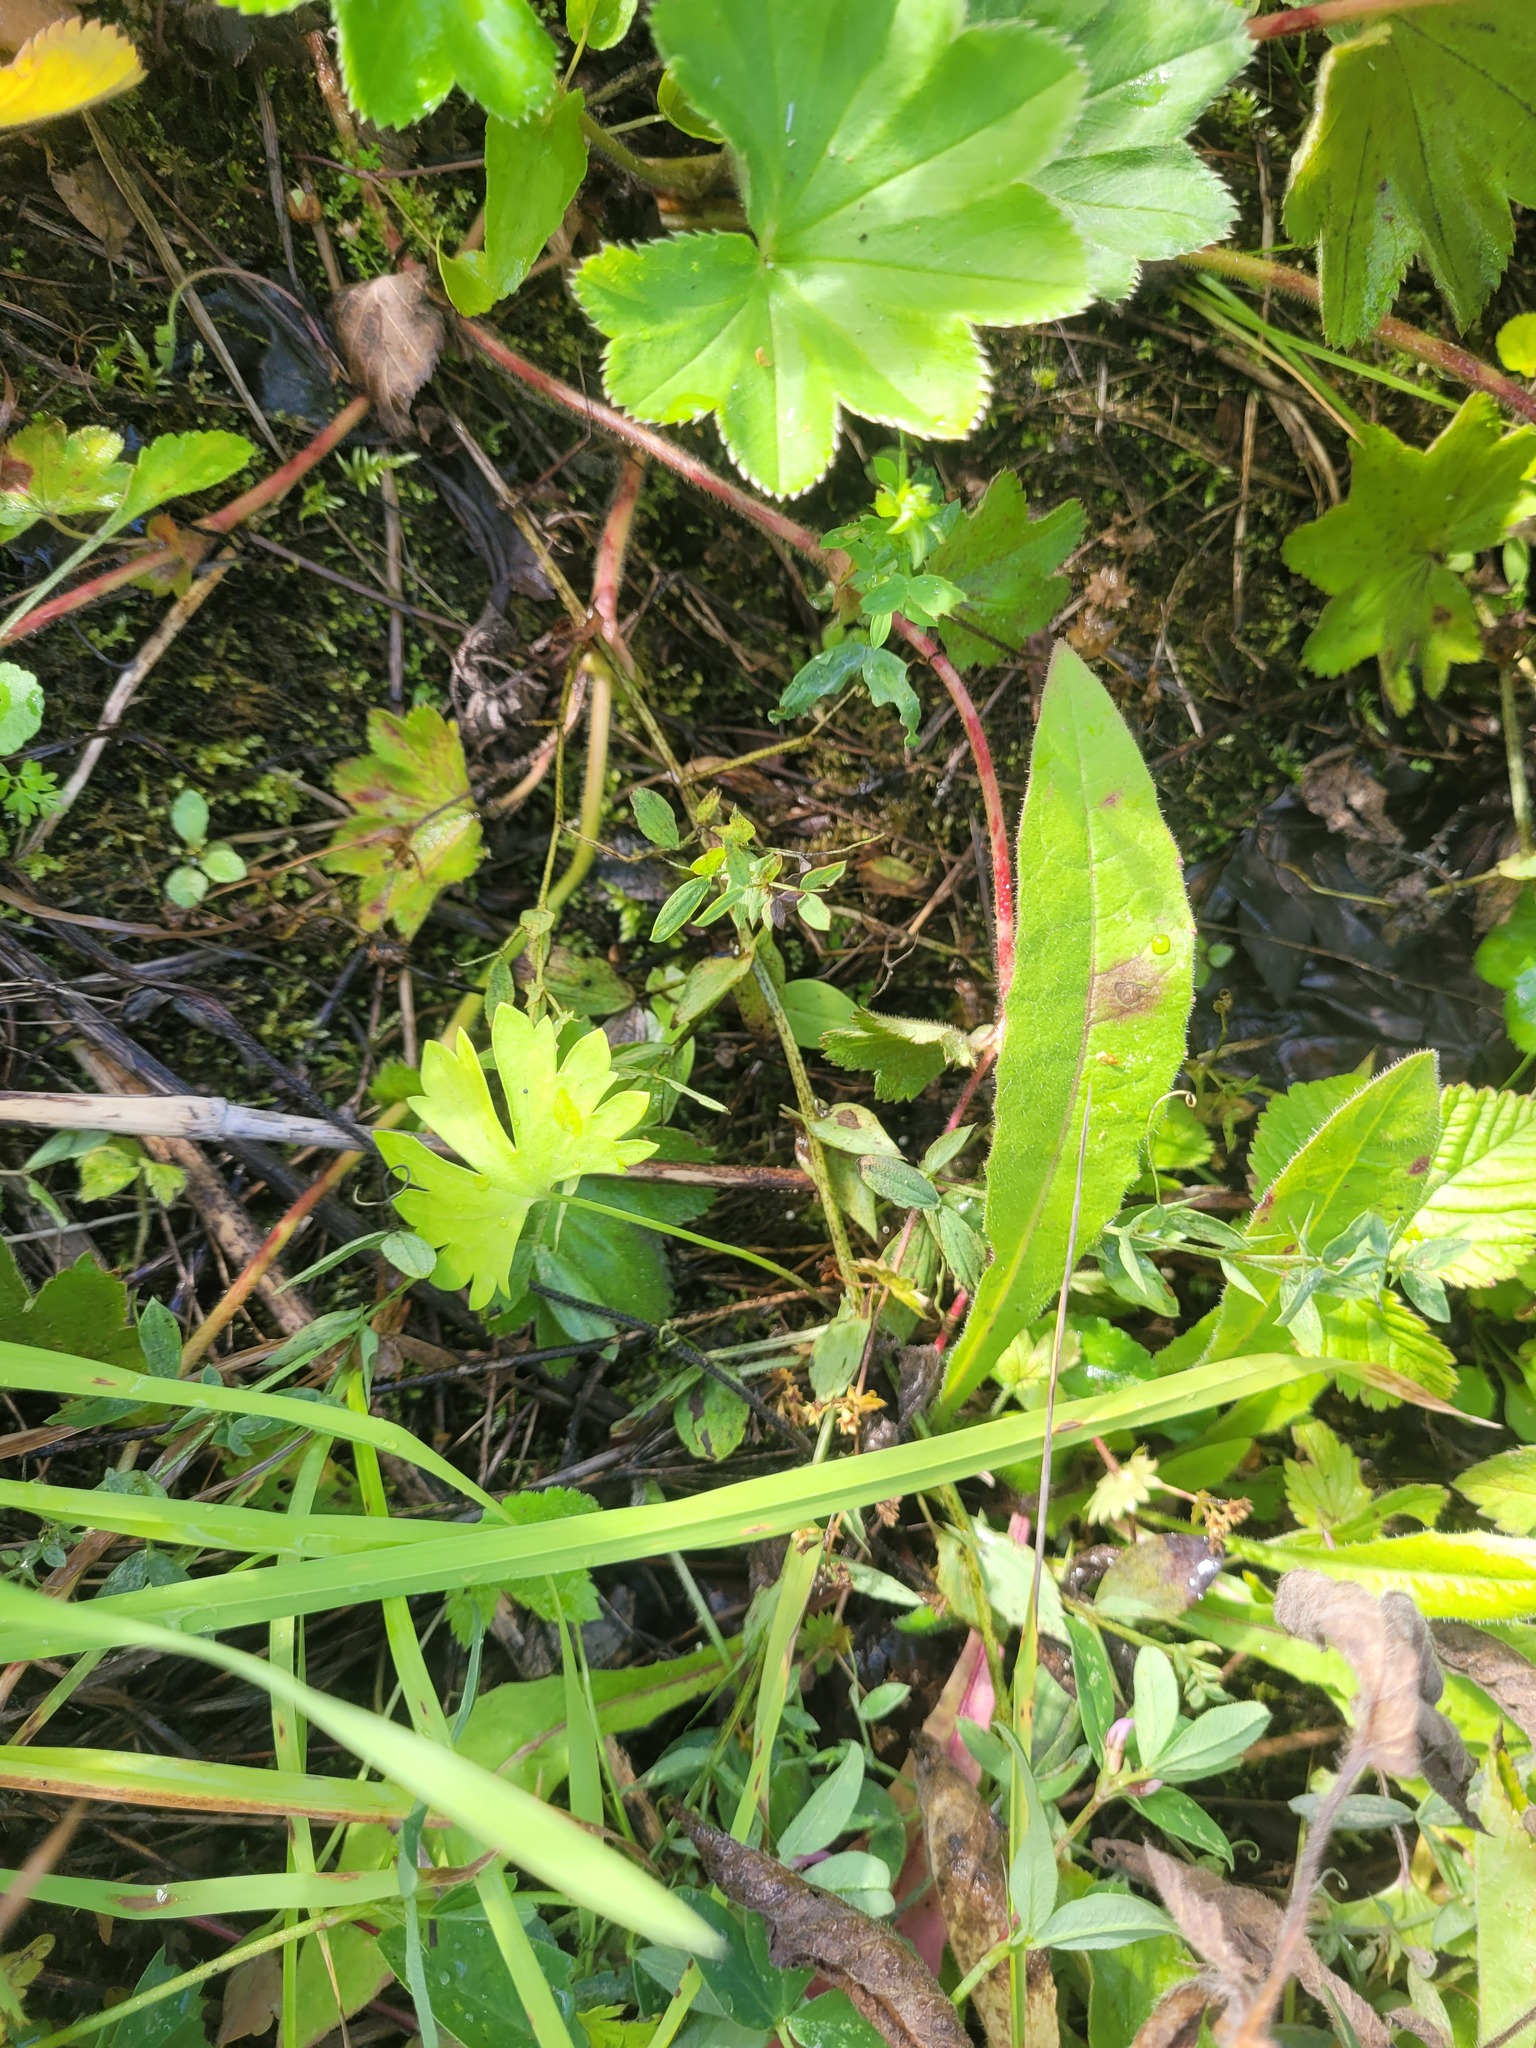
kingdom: Plantae
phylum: Tracheophyta
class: Magnoliopsida
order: Ranunculales
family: Ranunculaceae
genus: Ranunculus
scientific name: Ranunculus auricomus
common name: Goldilocks buttercup
